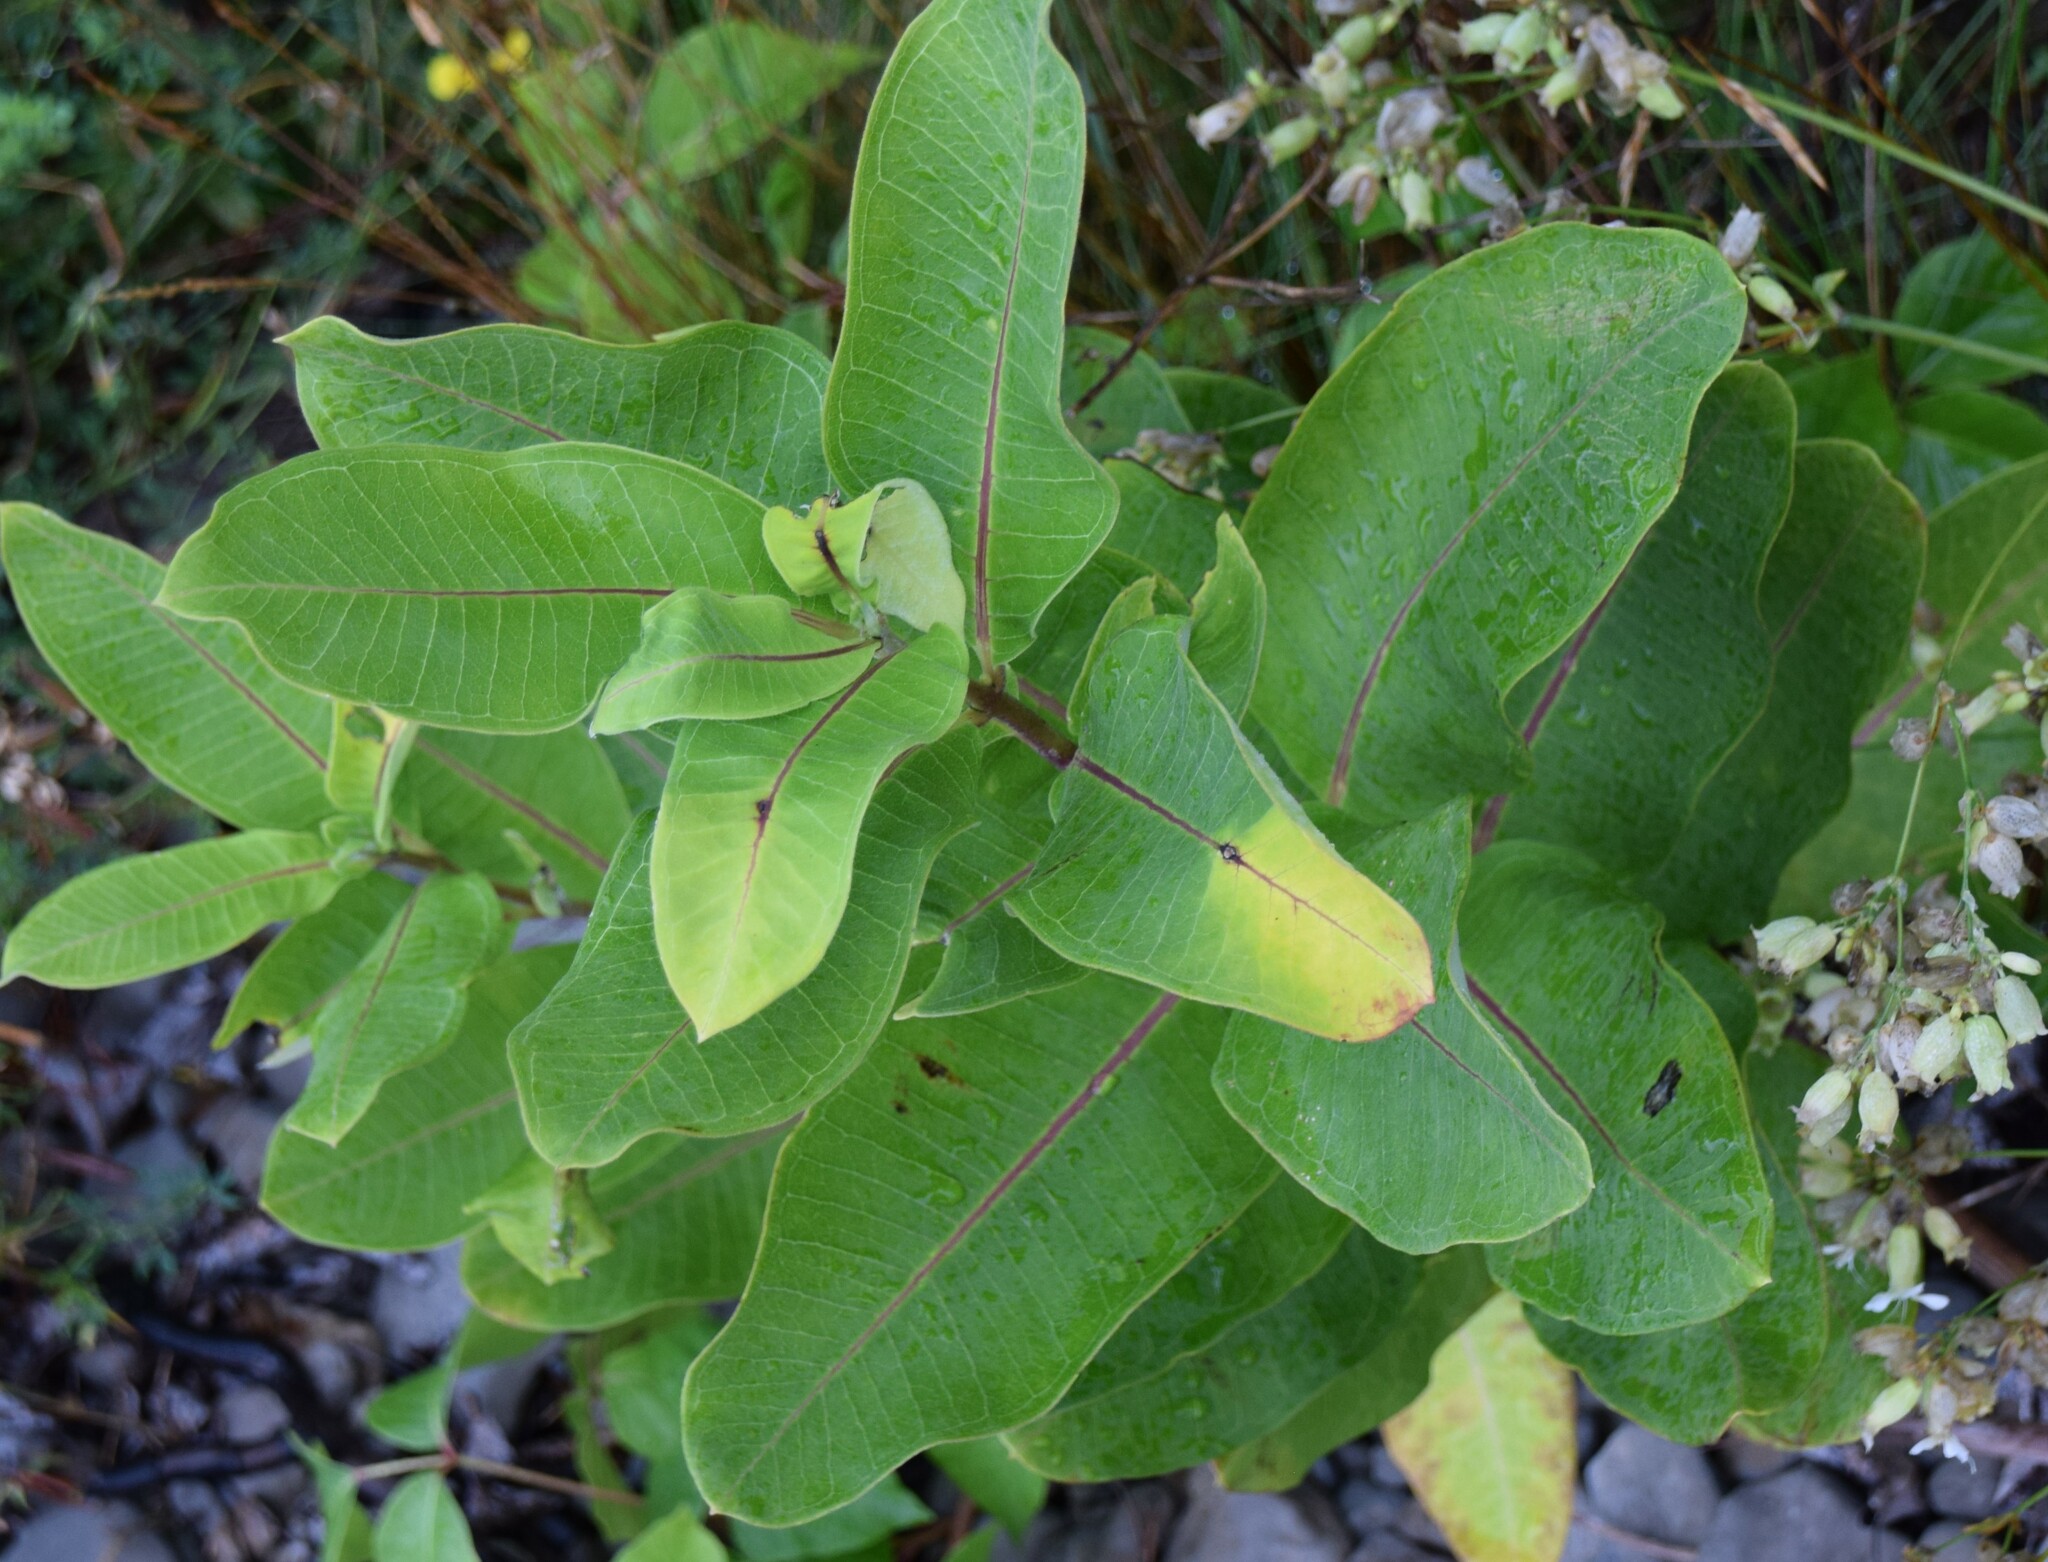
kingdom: Plantae
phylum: Tracheophyta
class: Magnoliopsida
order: Gentianales
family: Apocynaceae
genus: Asclepias
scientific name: Asclepias syriaca
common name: Common milkweed
